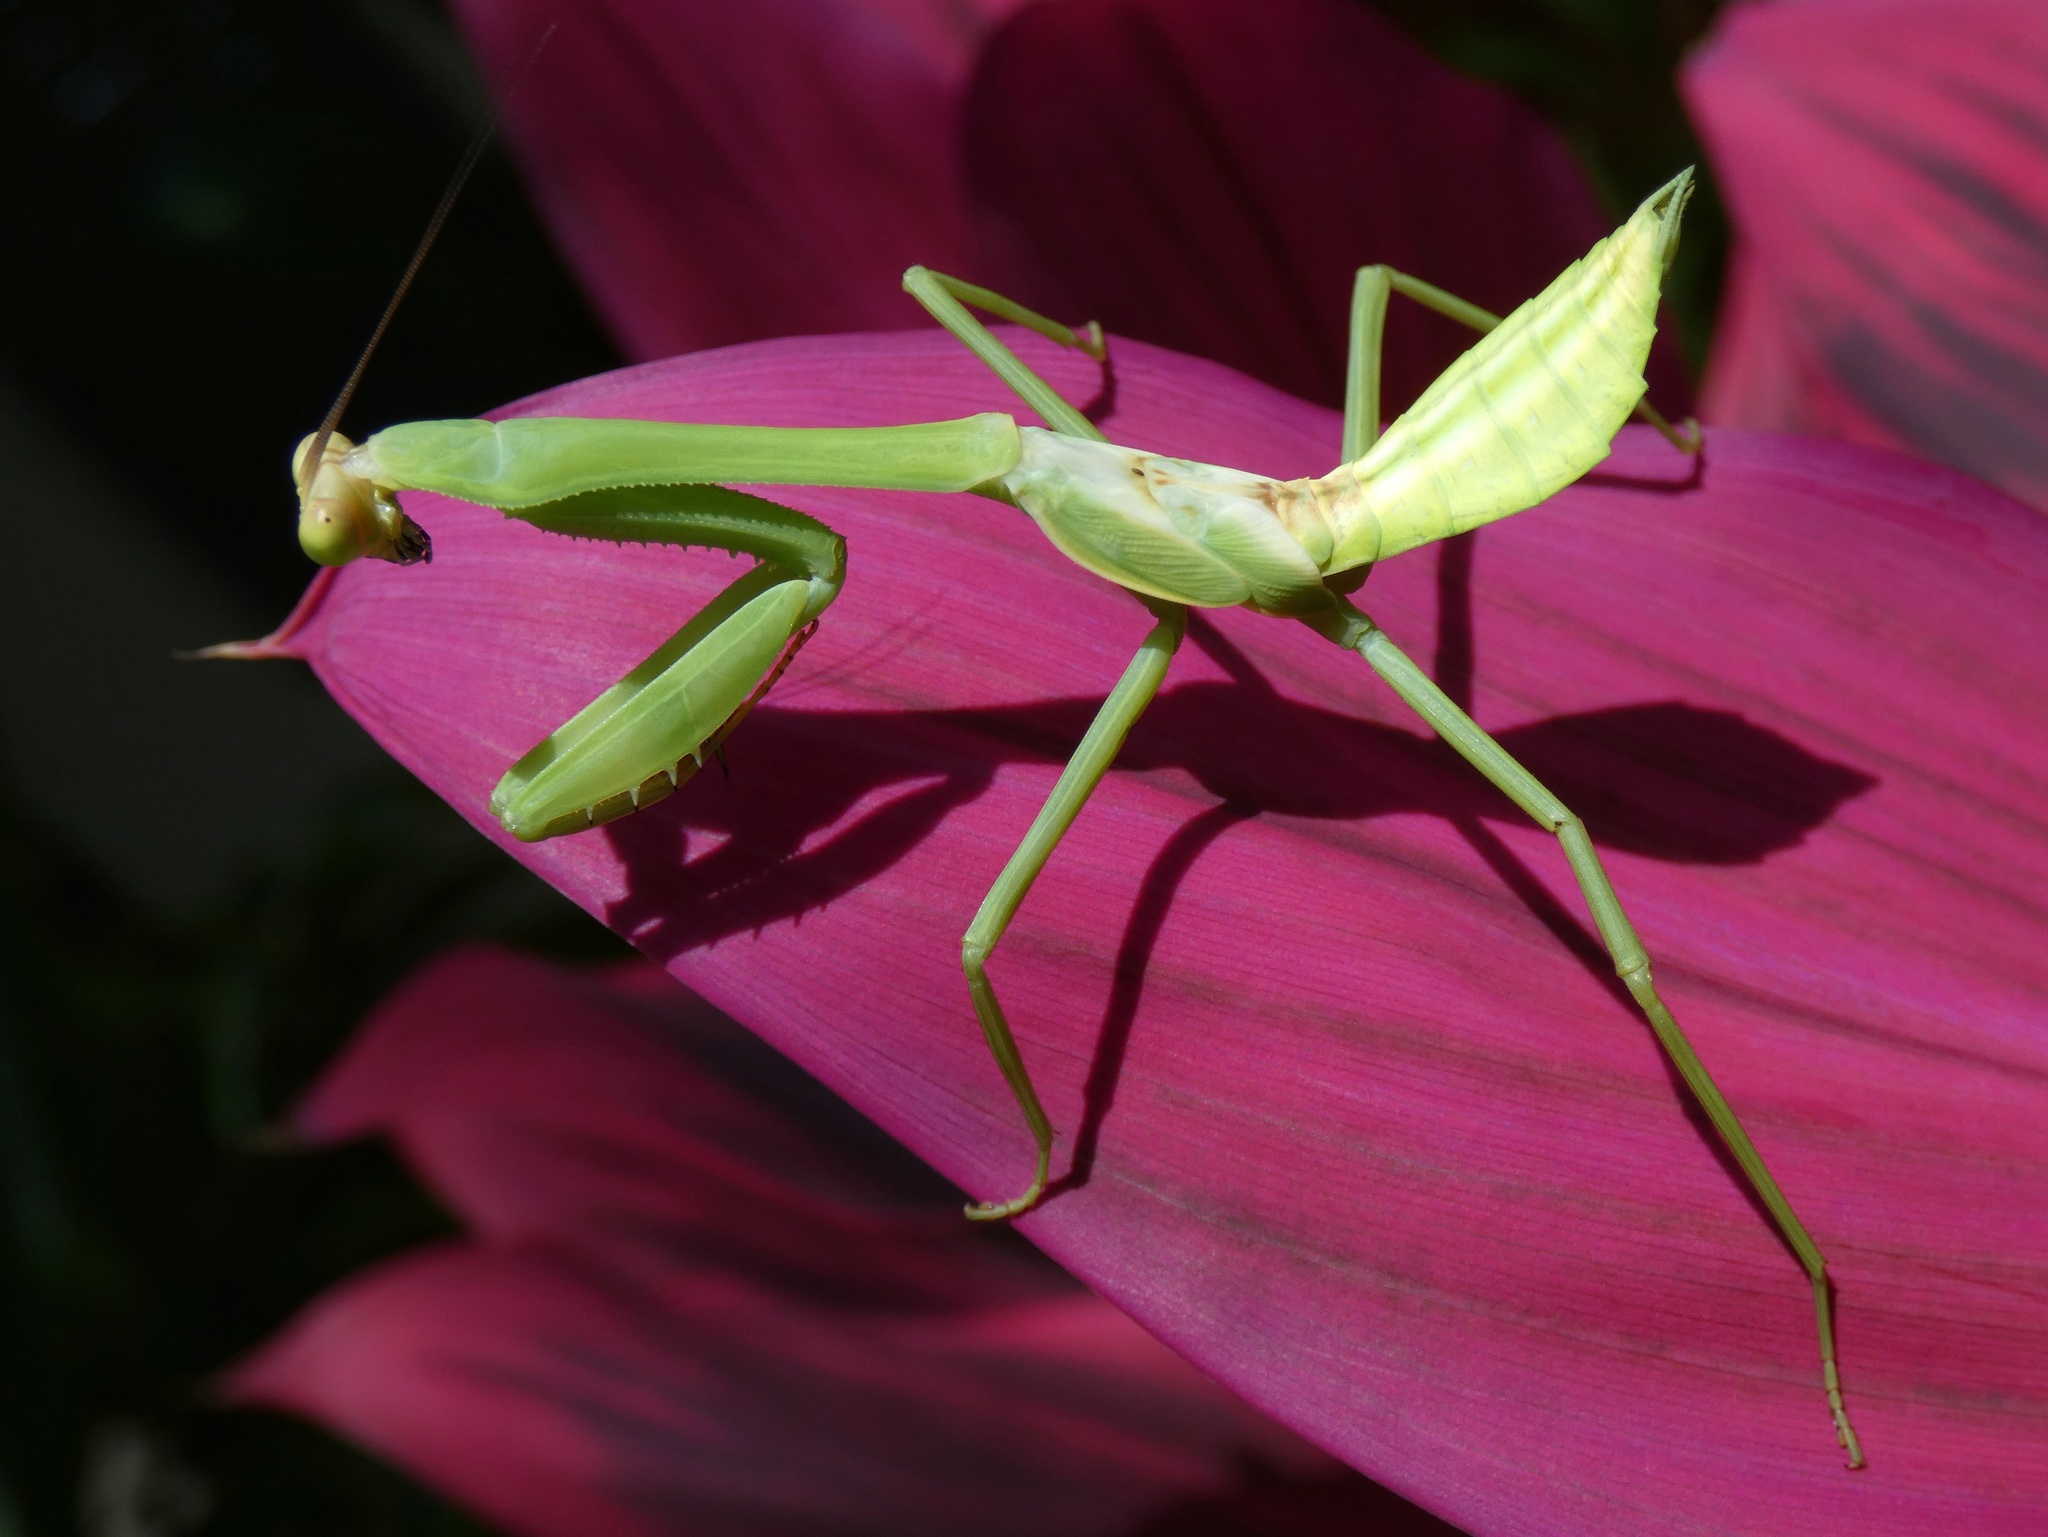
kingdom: Animalia
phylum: Arthropoda
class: Insecta
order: Mantodea
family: Mantidae
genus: Stagmatoptera
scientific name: Stagmatoptera septentrionalis
